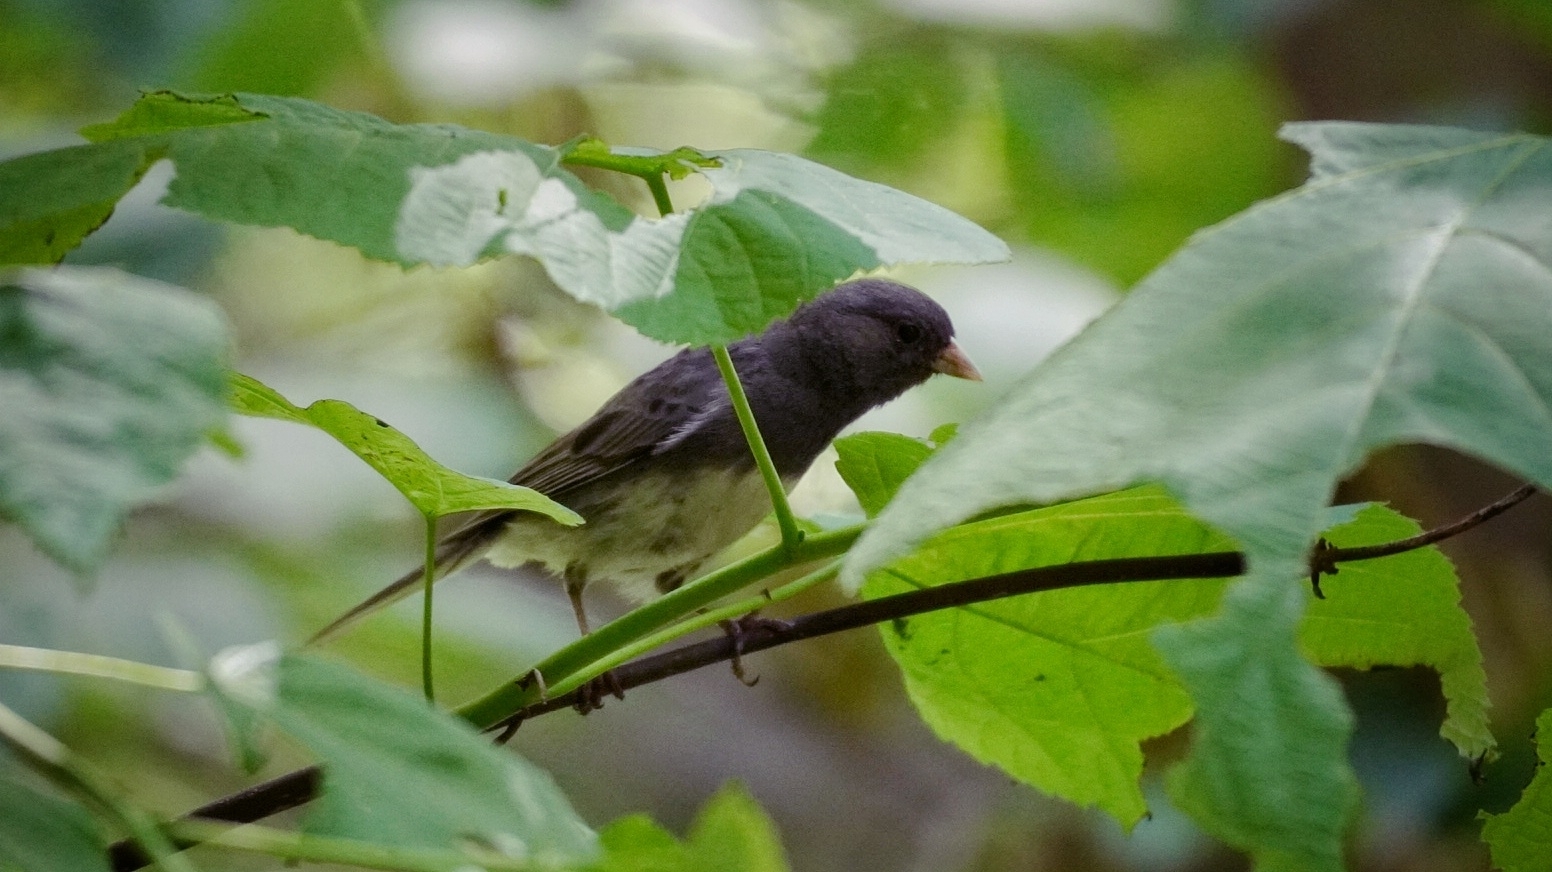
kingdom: Animalia
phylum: Chordata
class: Aves
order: Passeriformes
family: Passerellidae
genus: Junco
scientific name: Junco hyemalis
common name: Dark-eyed junco
